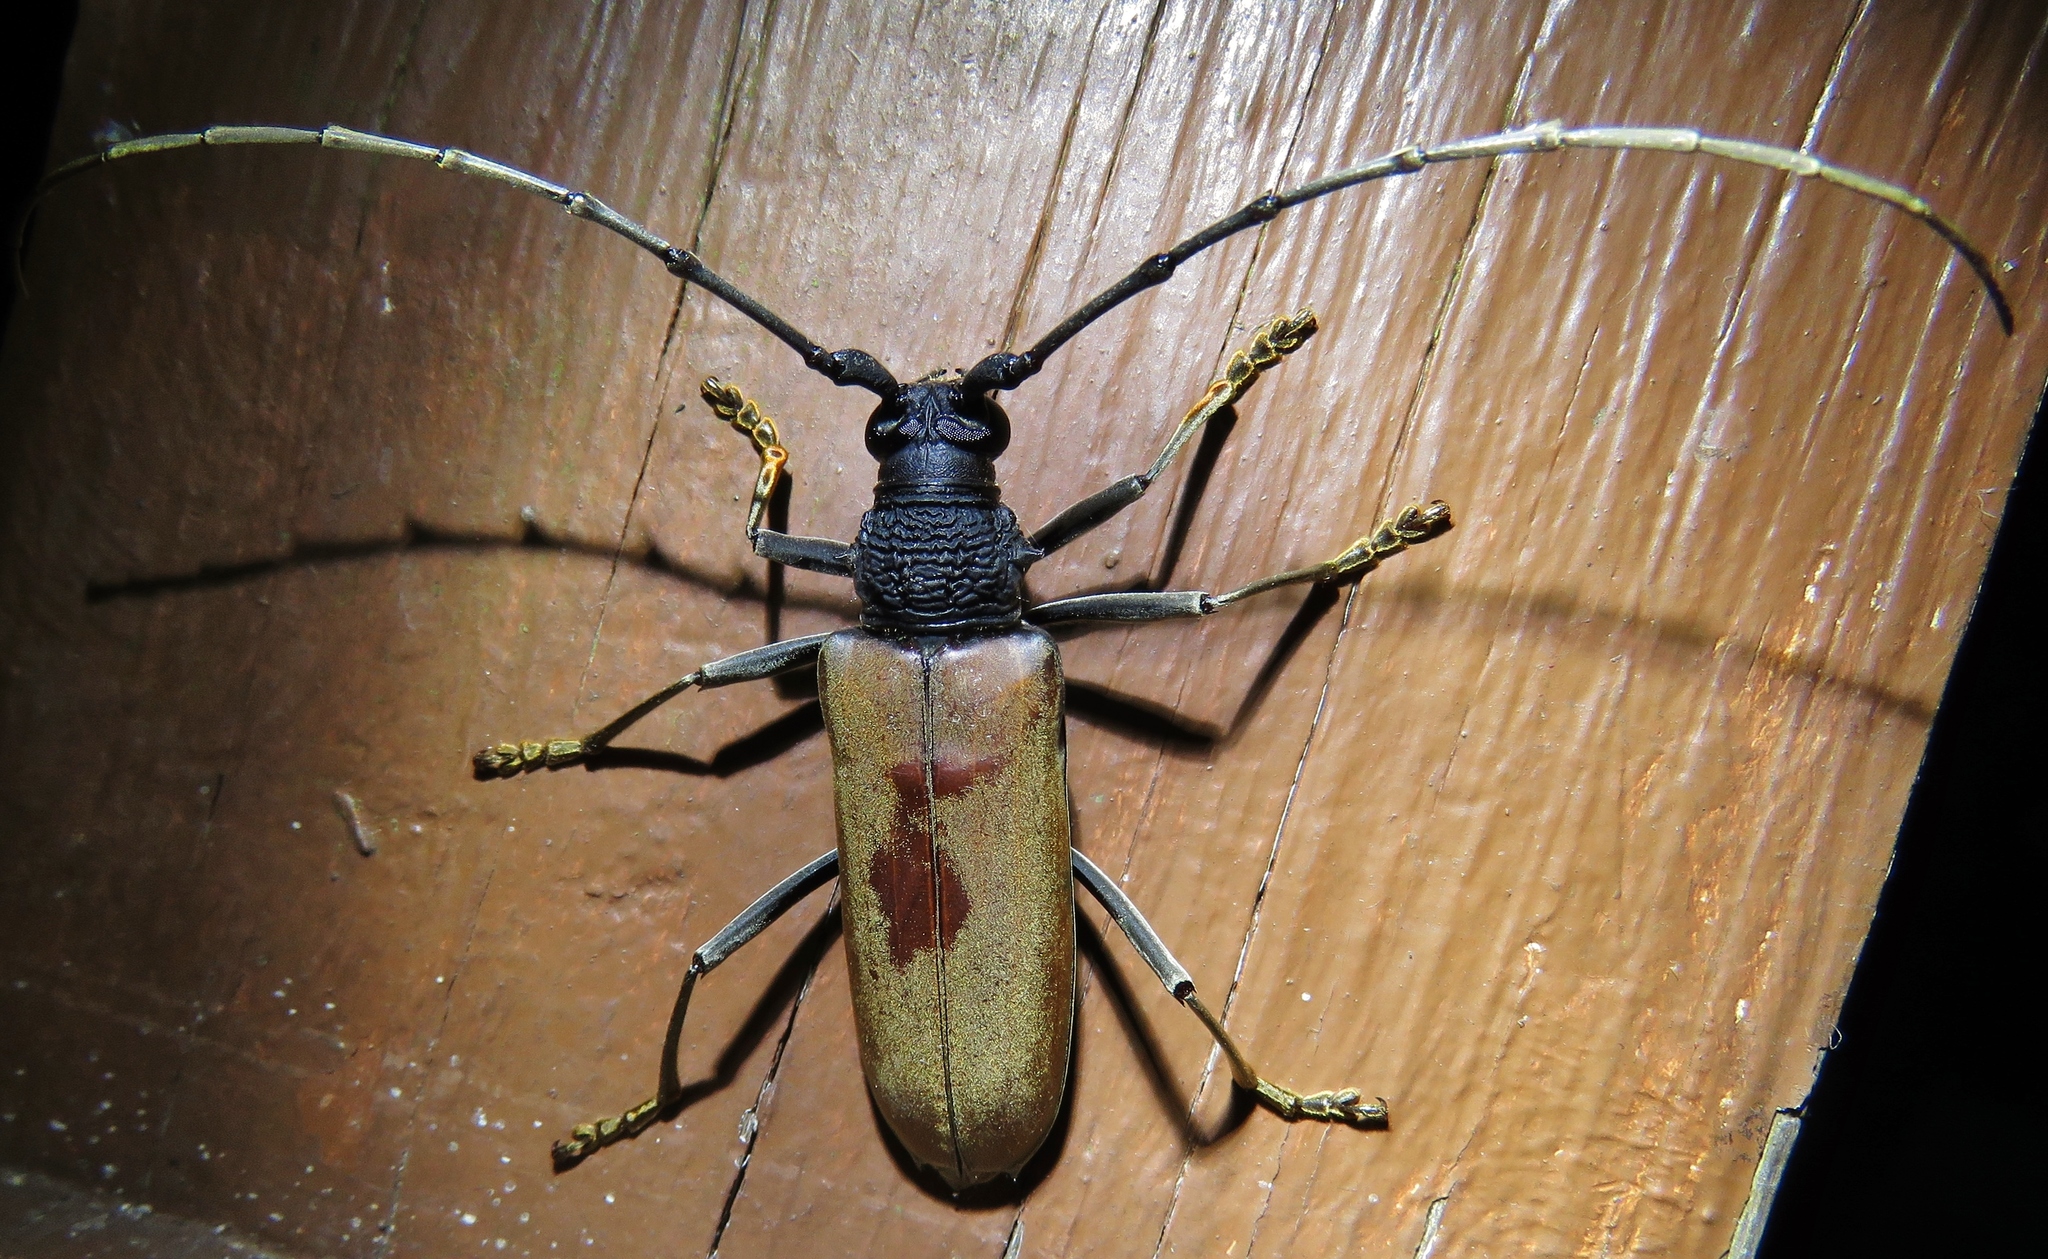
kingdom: Animalia
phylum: Arthropoda
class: Insecta
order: Coleoptera
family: Cerambycidae
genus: Juiaparus
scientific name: Juiaparus mexicanus
